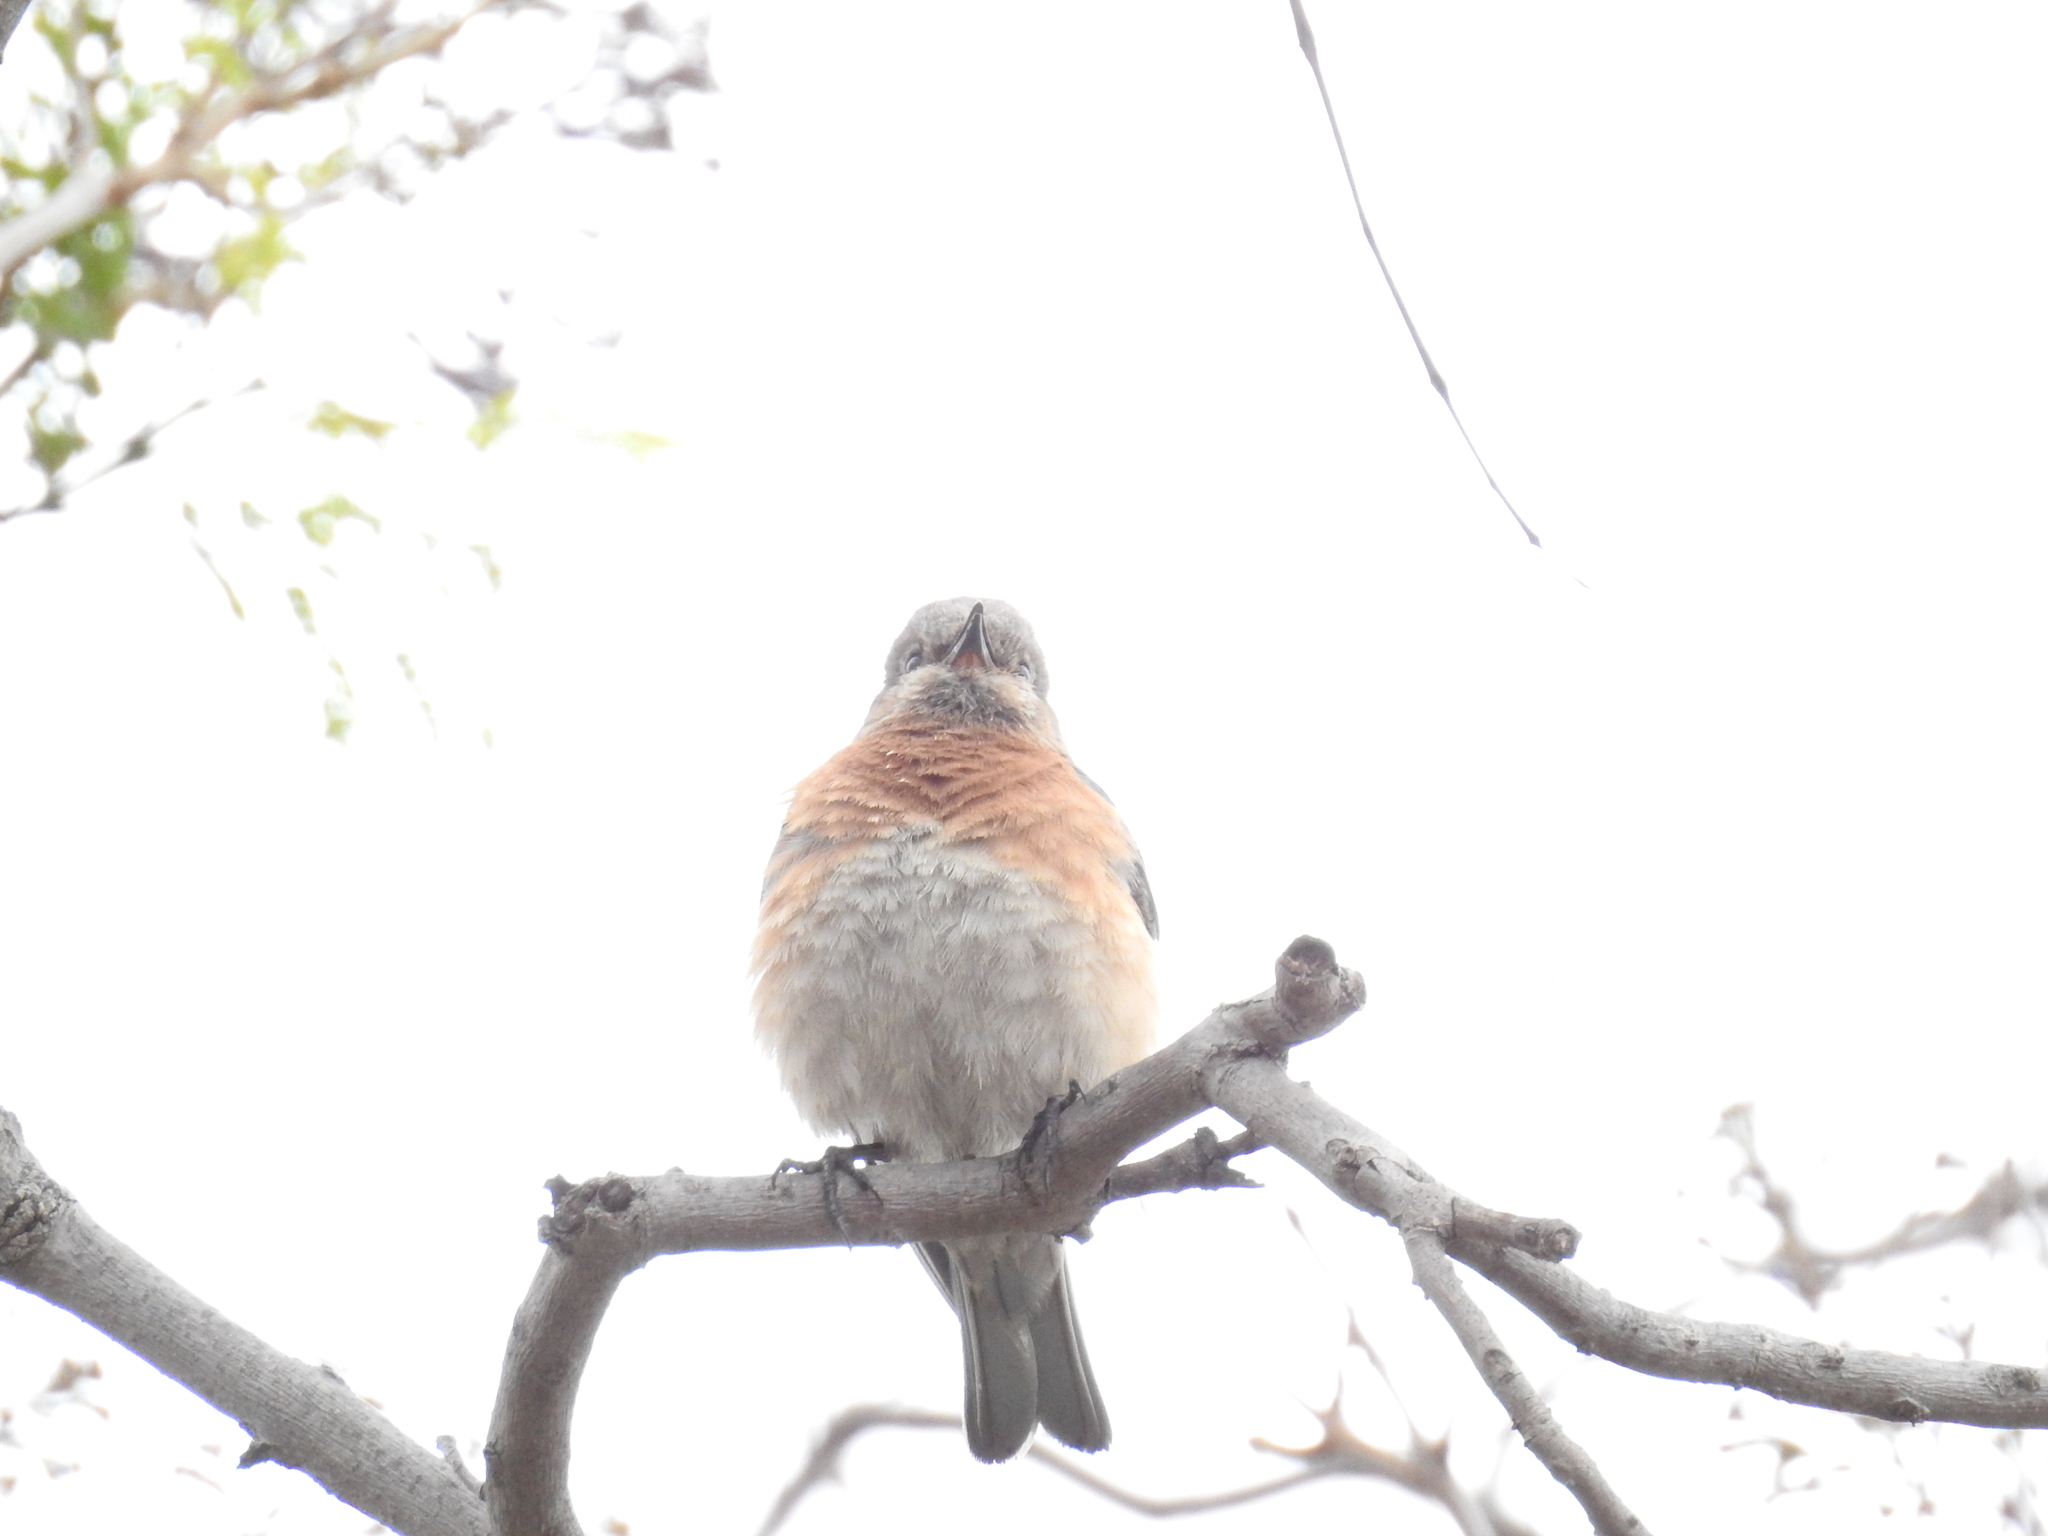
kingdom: Animalia
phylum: Chordata
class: Aves
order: Passeriformes
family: Turdidae
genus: Sialia
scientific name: Sialia mexicana
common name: Western bluebird
